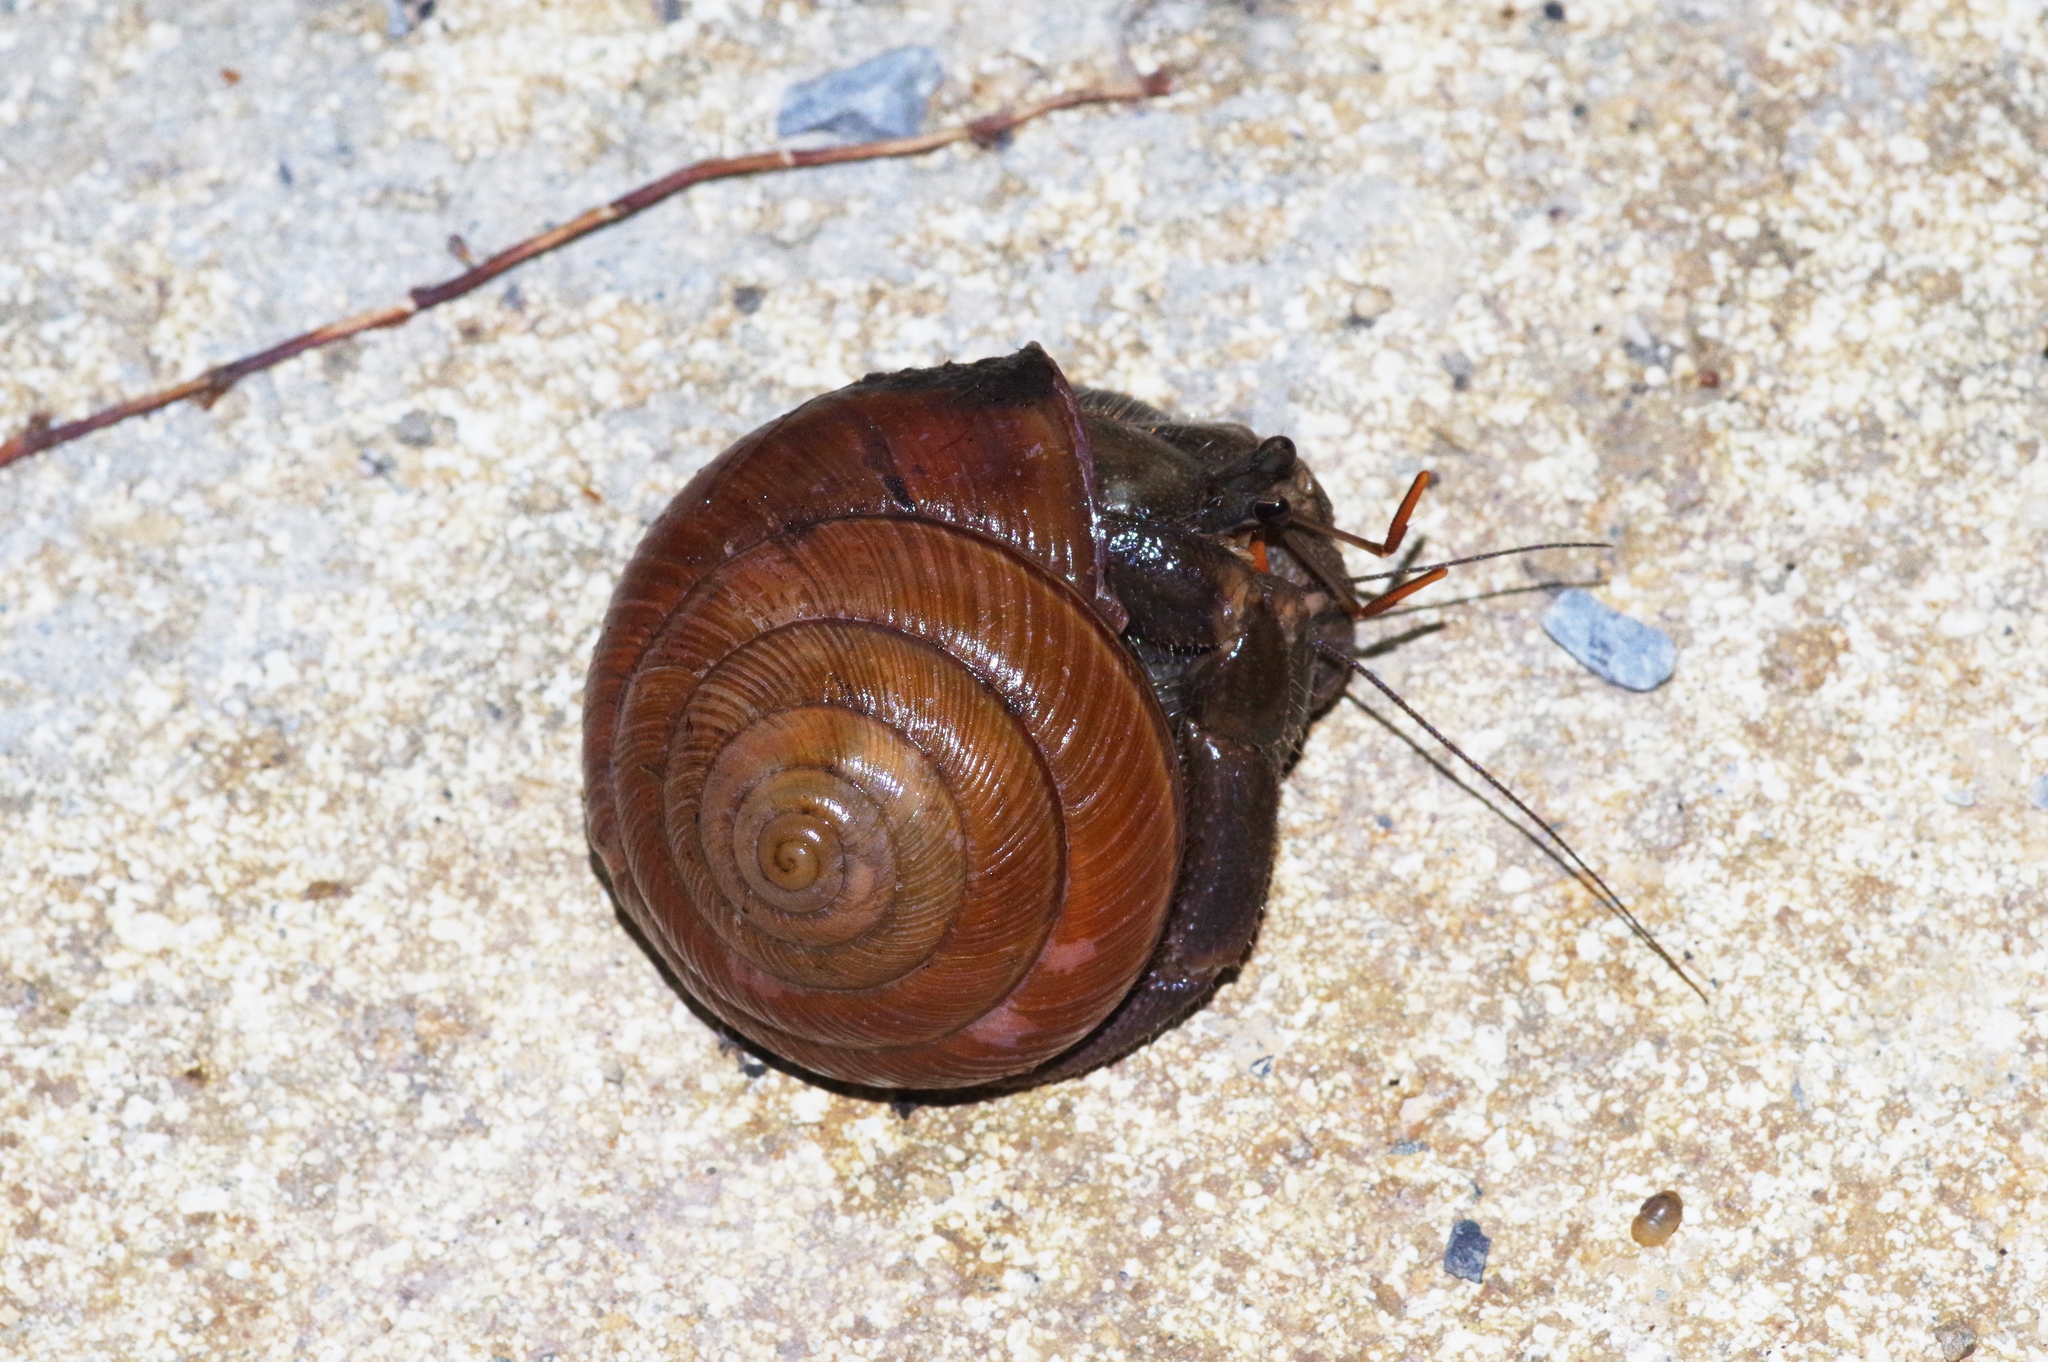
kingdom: Animalia
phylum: Arthropoda
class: Malacostraca
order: Decapoda
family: Coenobitidae
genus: Coenobita
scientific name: Coenobita cavipes
